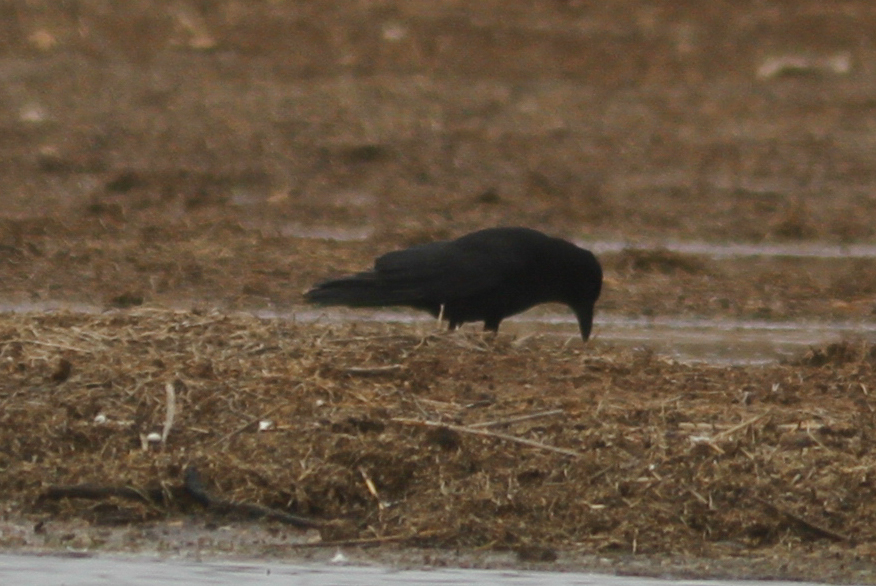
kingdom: Animalia
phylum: Chordata
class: Aves
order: Passeriformes
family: Corvidae
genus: Corvus
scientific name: Corvus corone
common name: Carrion crow
